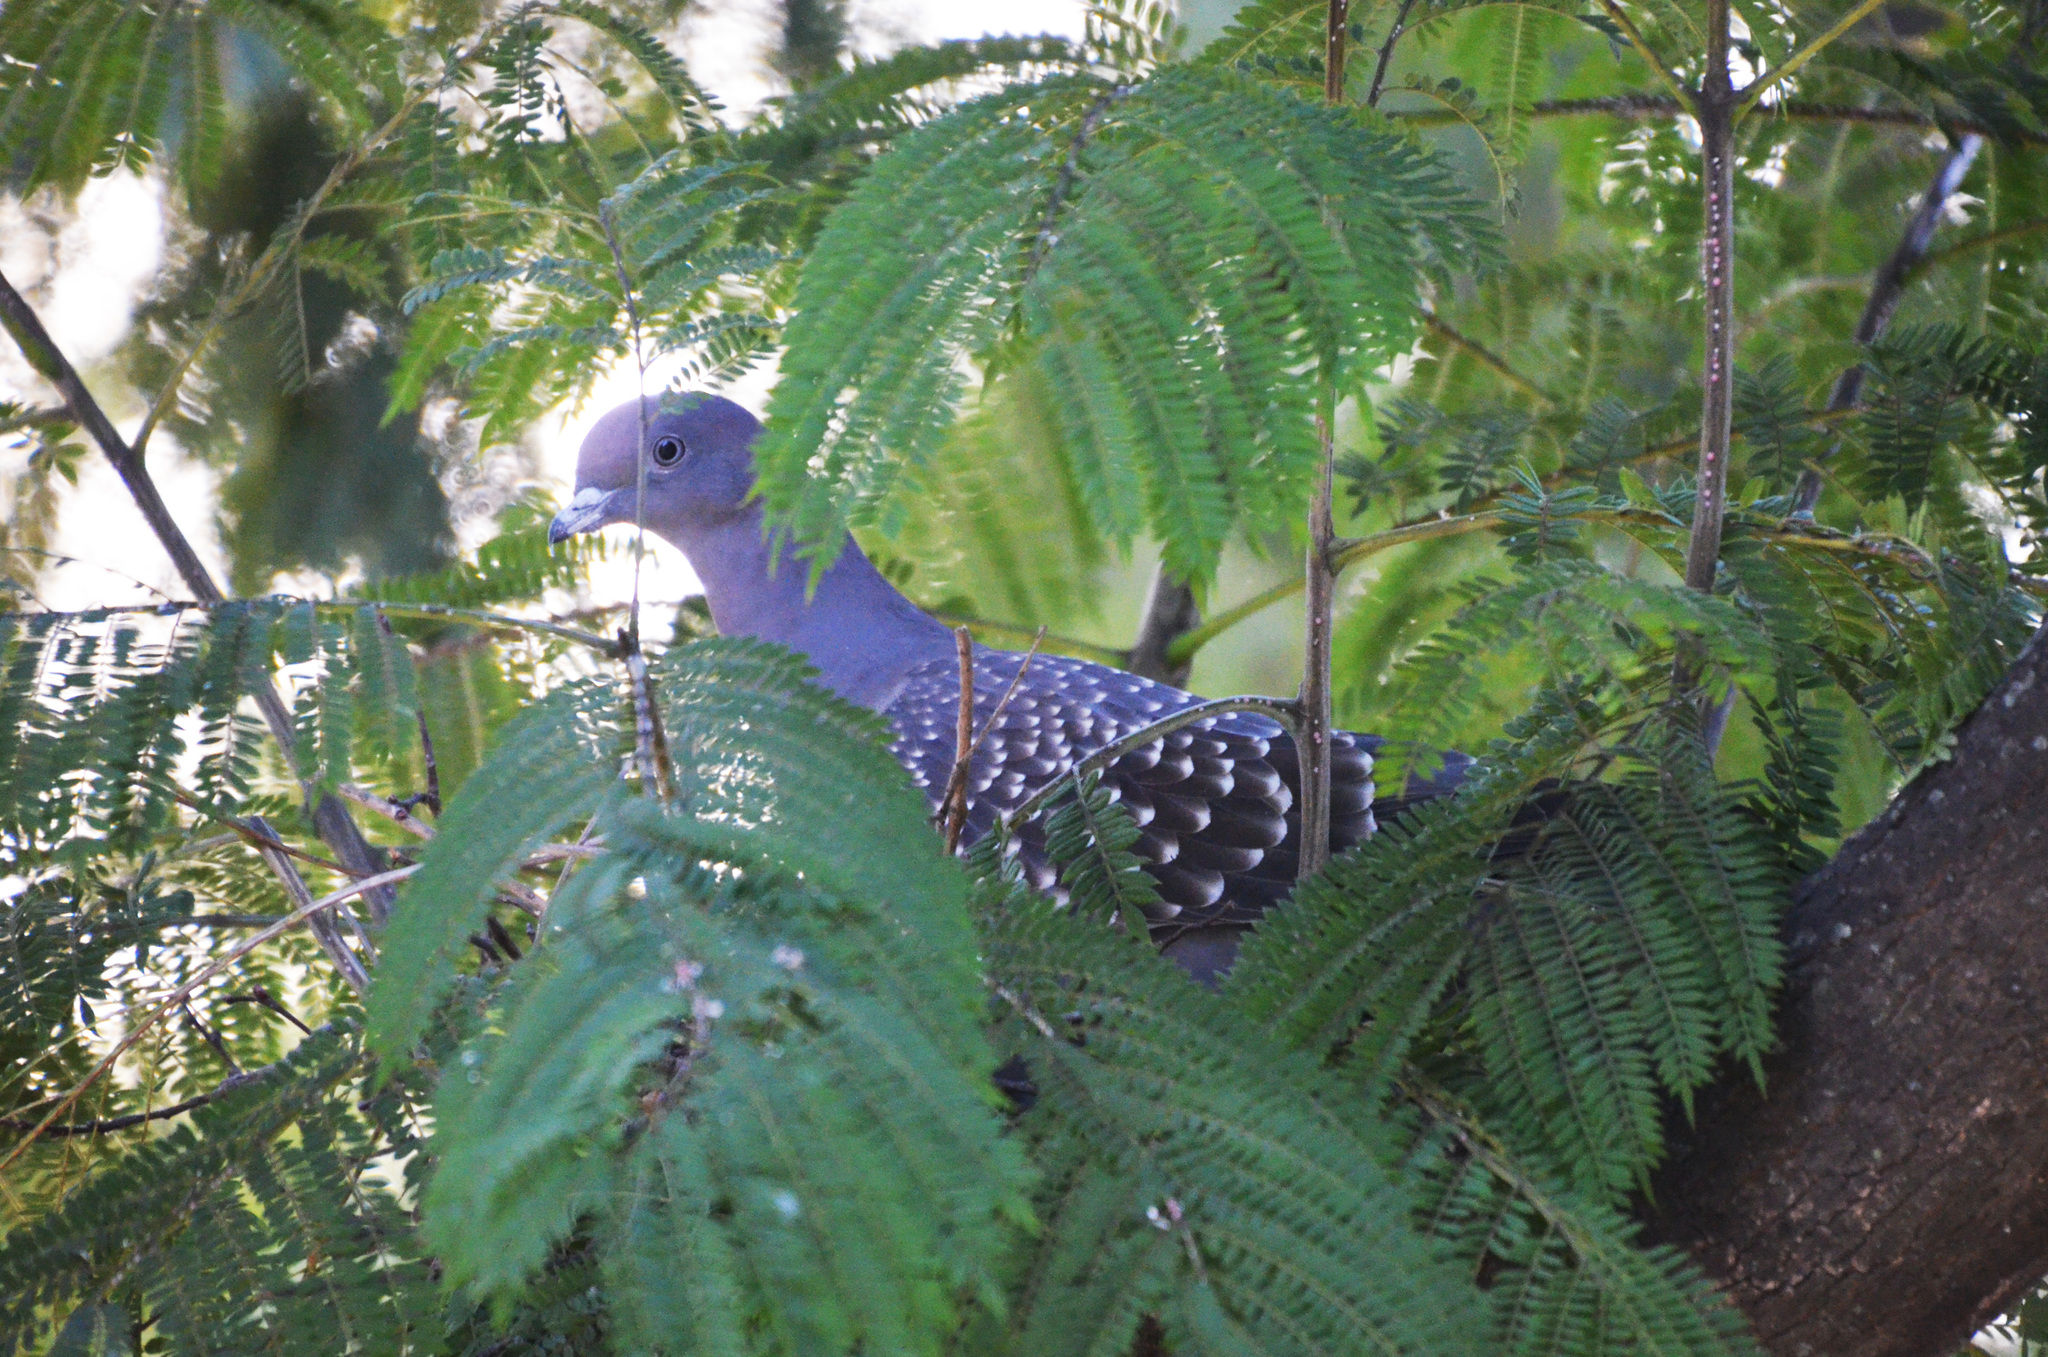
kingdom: Animalia
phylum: Chordata
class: Aves
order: Columbiformes
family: Columbidae
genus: Patagioenas
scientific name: Patagioenas maculosa
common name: Spot-winged pigeon
